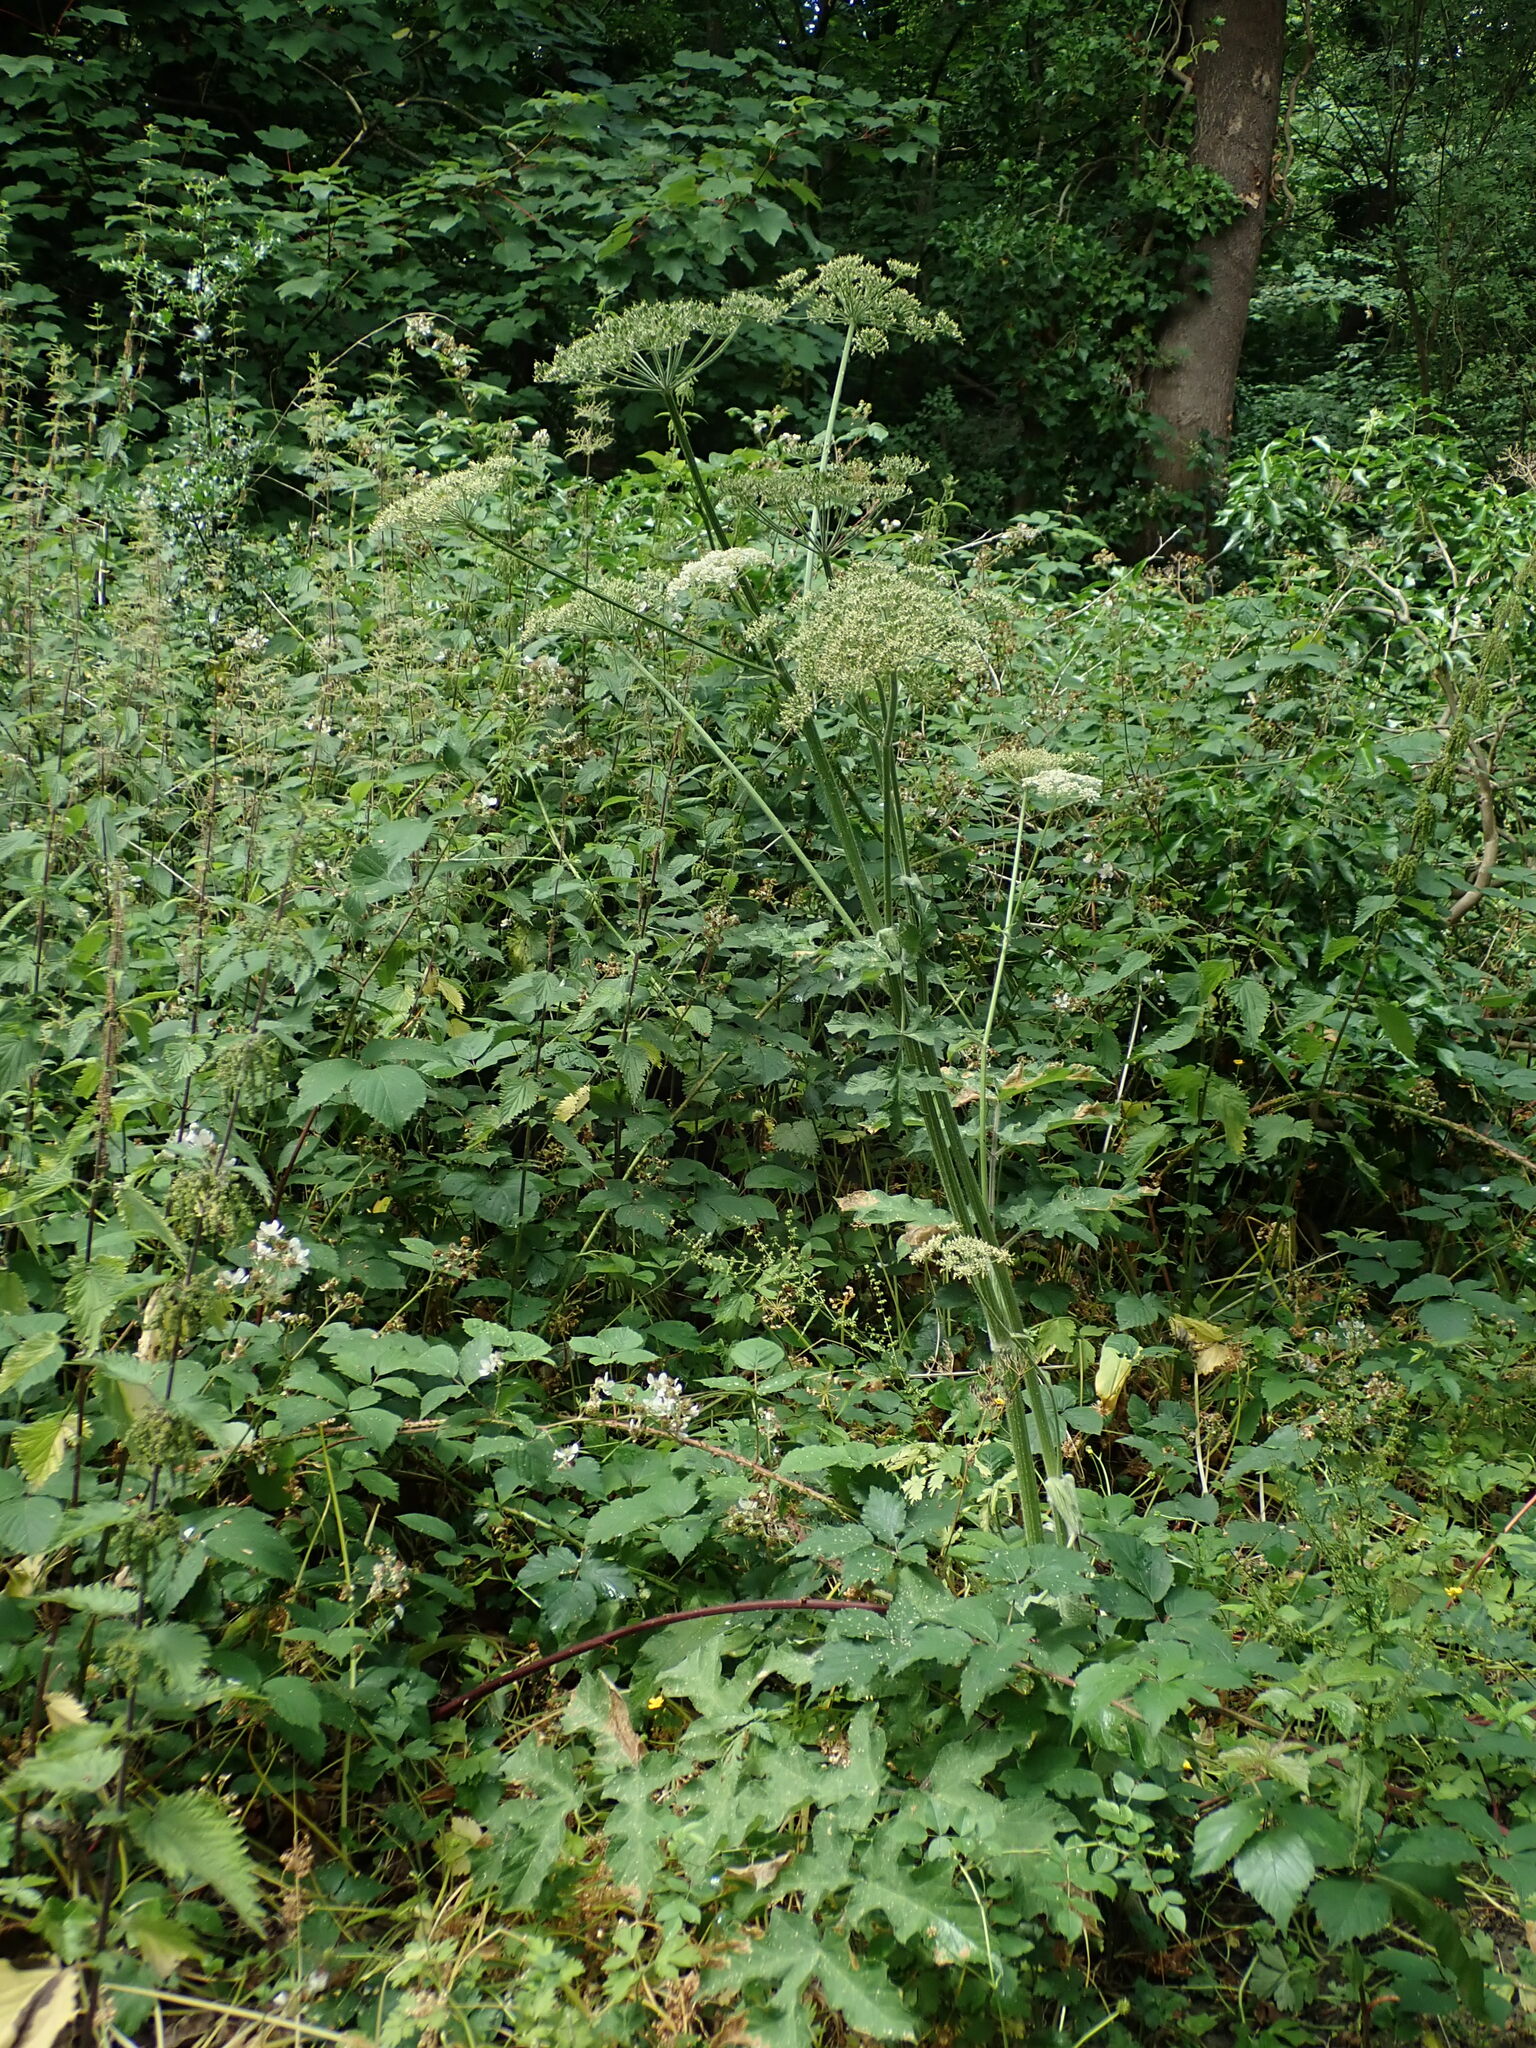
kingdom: Plantae
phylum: Tracheophyta
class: Magnoliopsida
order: Apiales
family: Apiaceae
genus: Heracleum
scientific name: Heracleum sphondylium
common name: Hogweed
